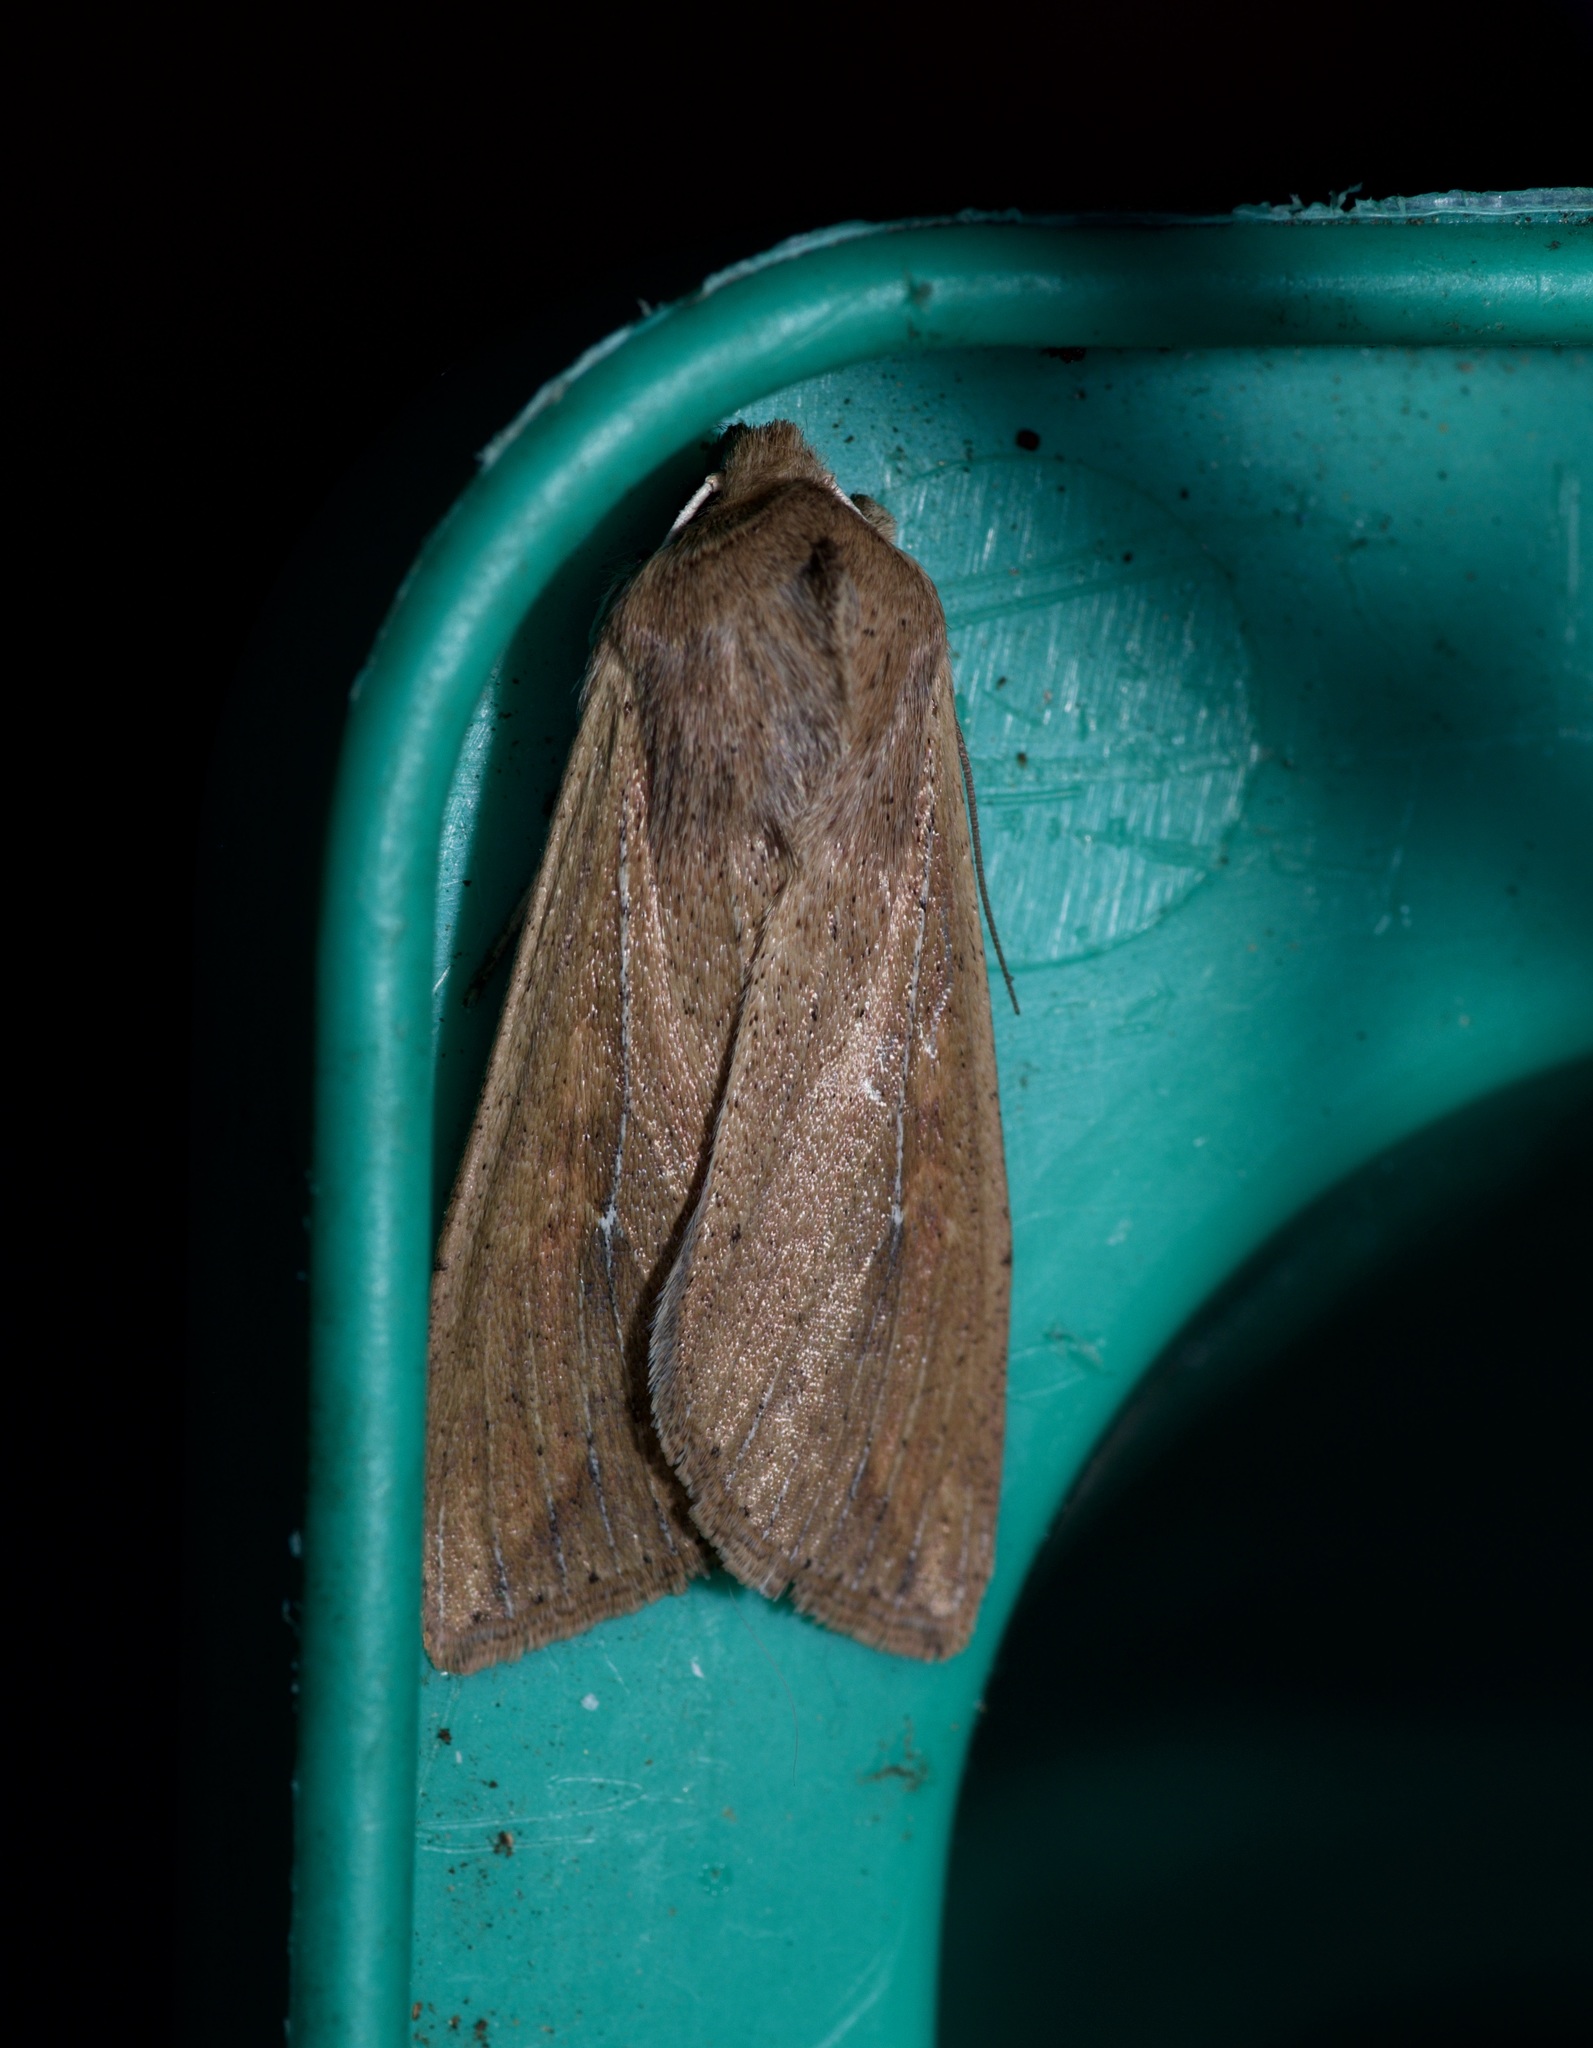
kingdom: Animalia
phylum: Arthropoda
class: Insecta
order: Lepidoptera
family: Noctuidae
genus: Mythimna
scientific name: Mythimna unipuncta
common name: White-speck
